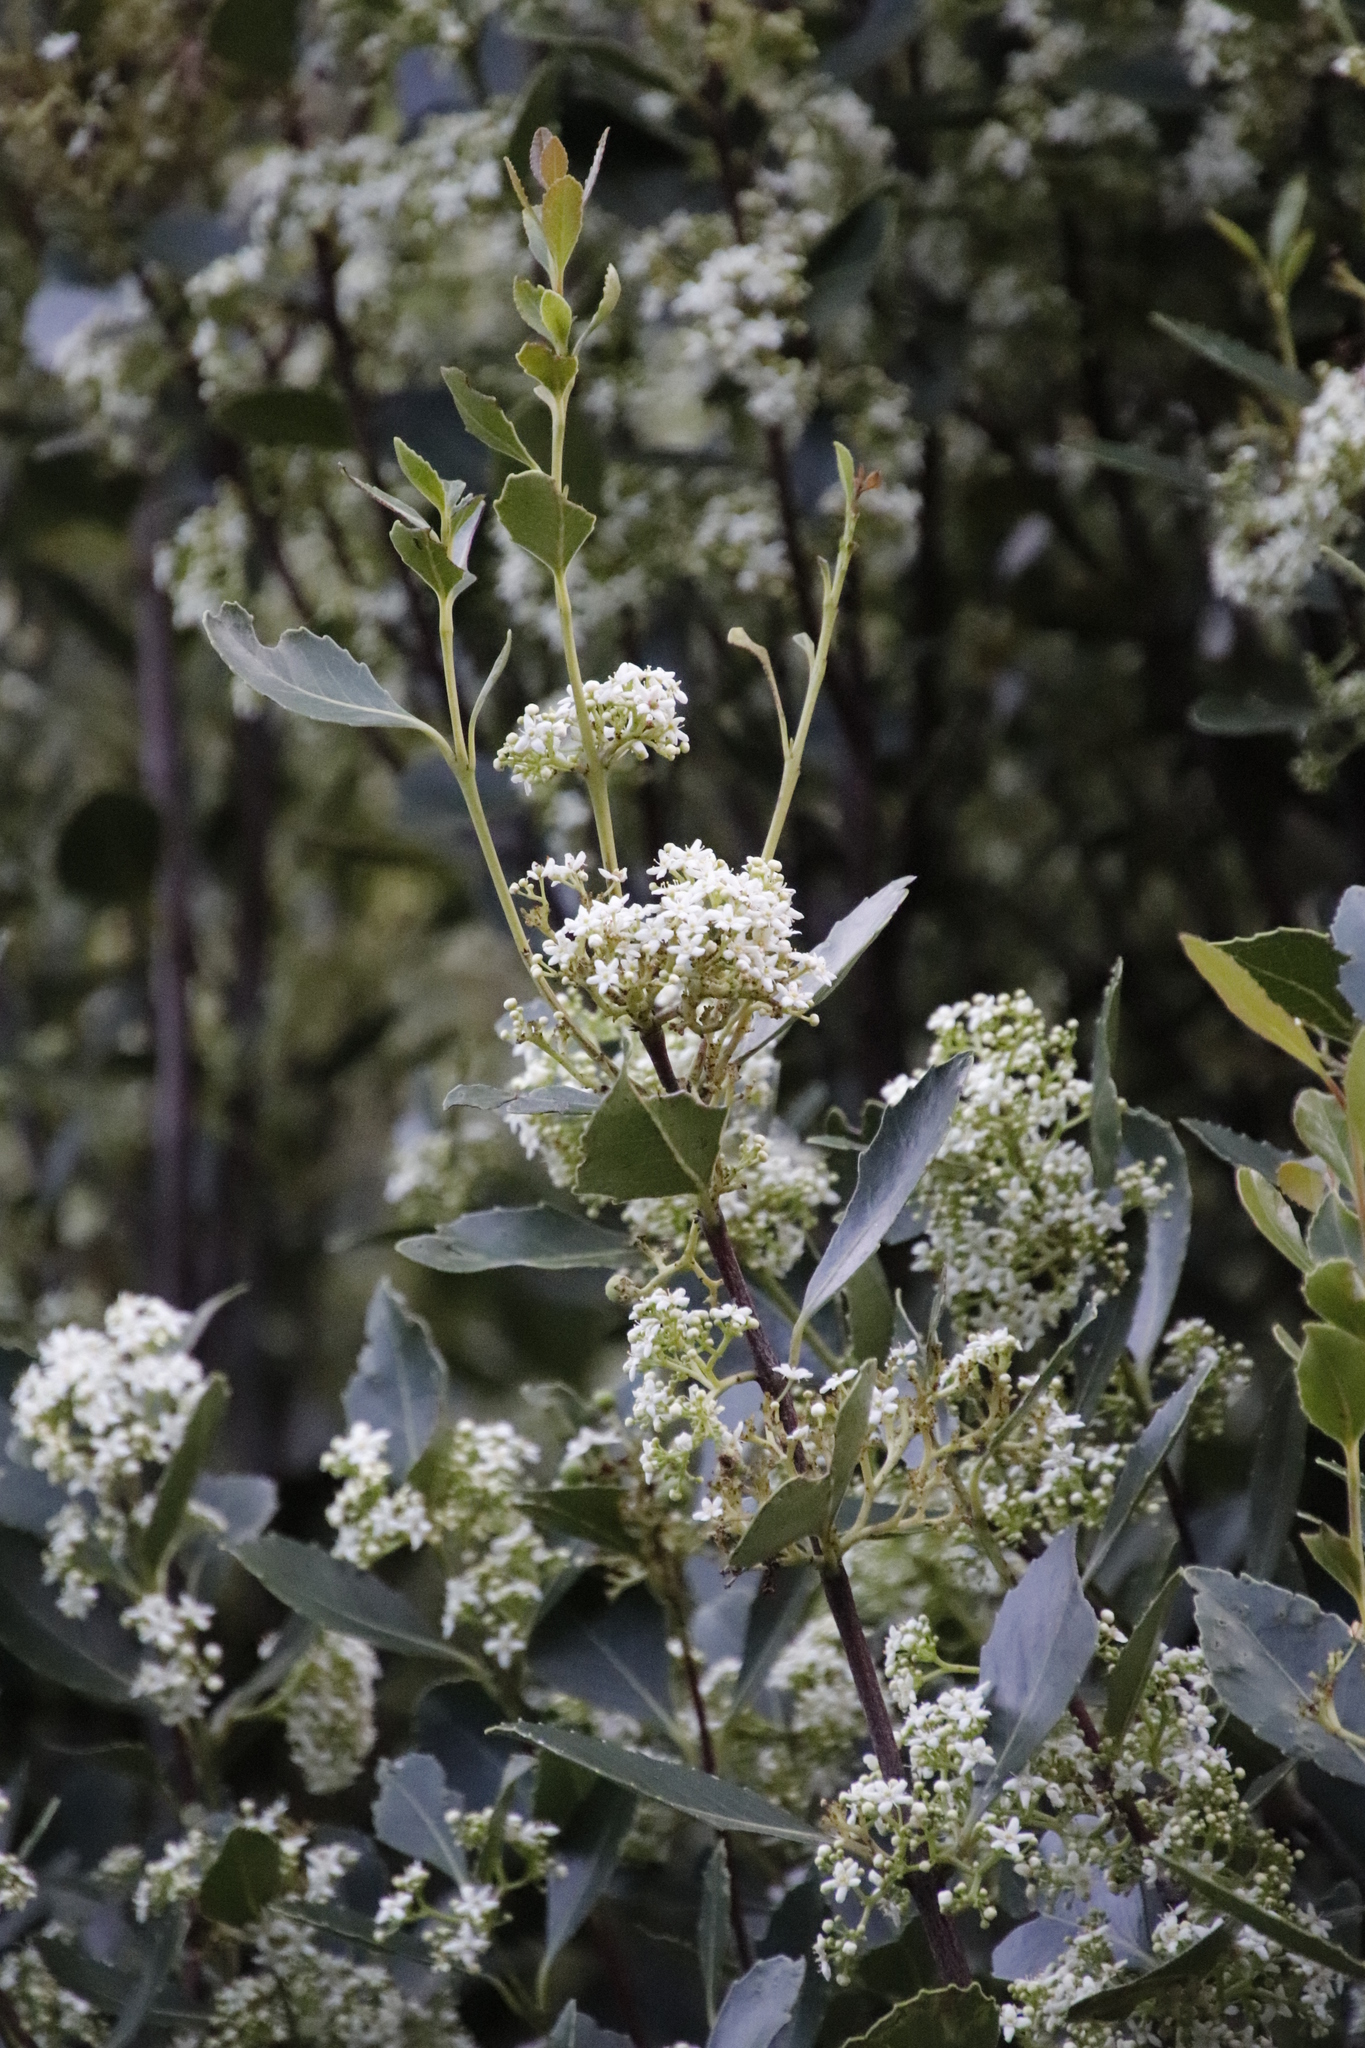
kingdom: Plantae
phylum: Tracheophyta
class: Magnoliopsida
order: Celastrales
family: Celastraceae
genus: Cassine
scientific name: Cassine peragua
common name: Cape saffron
